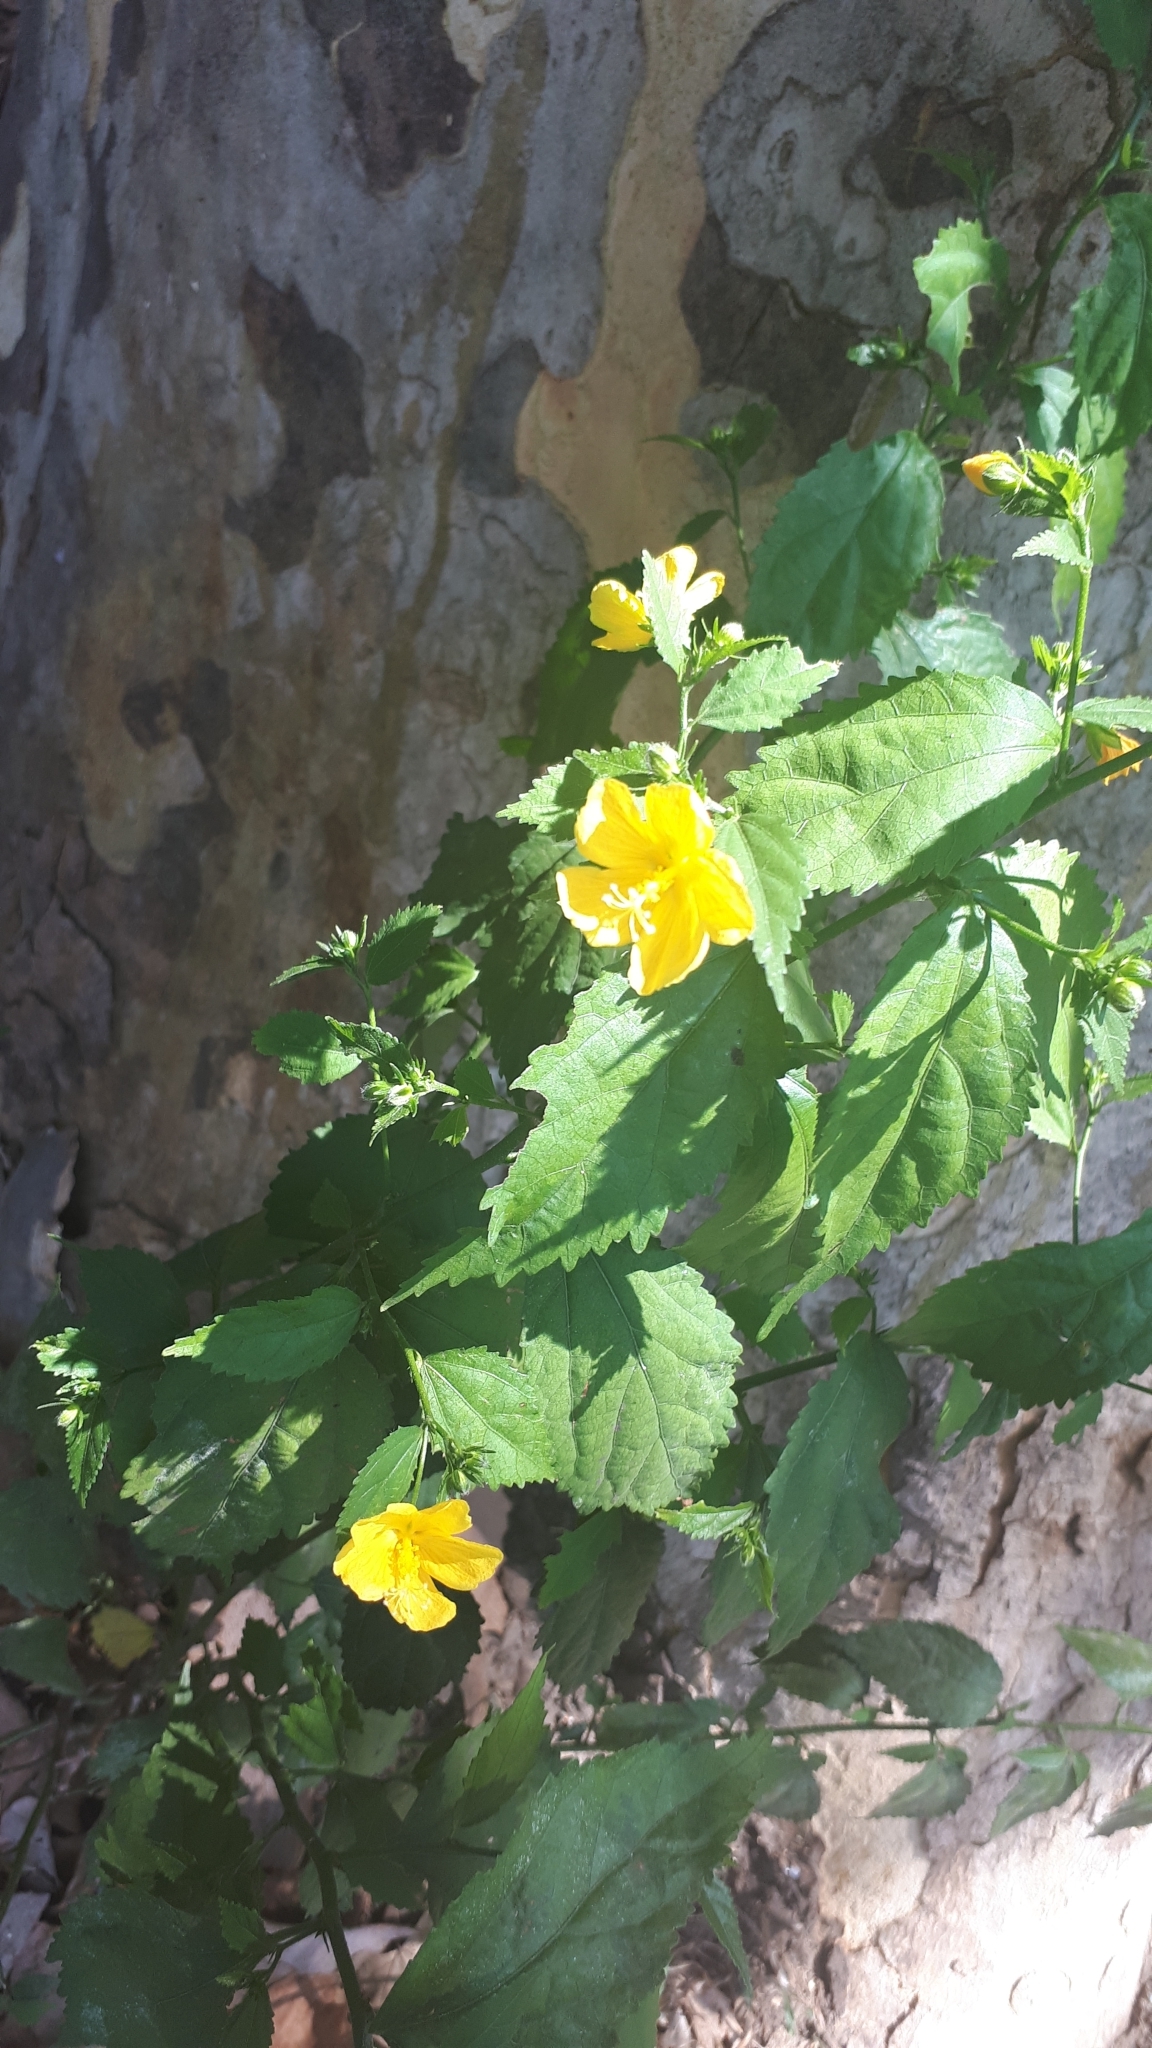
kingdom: Plantae
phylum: Tracheophyta
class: Magnoliopsida
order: Malvales
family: Malvaceae
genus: Pavonia
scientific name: Pavonia sepium
